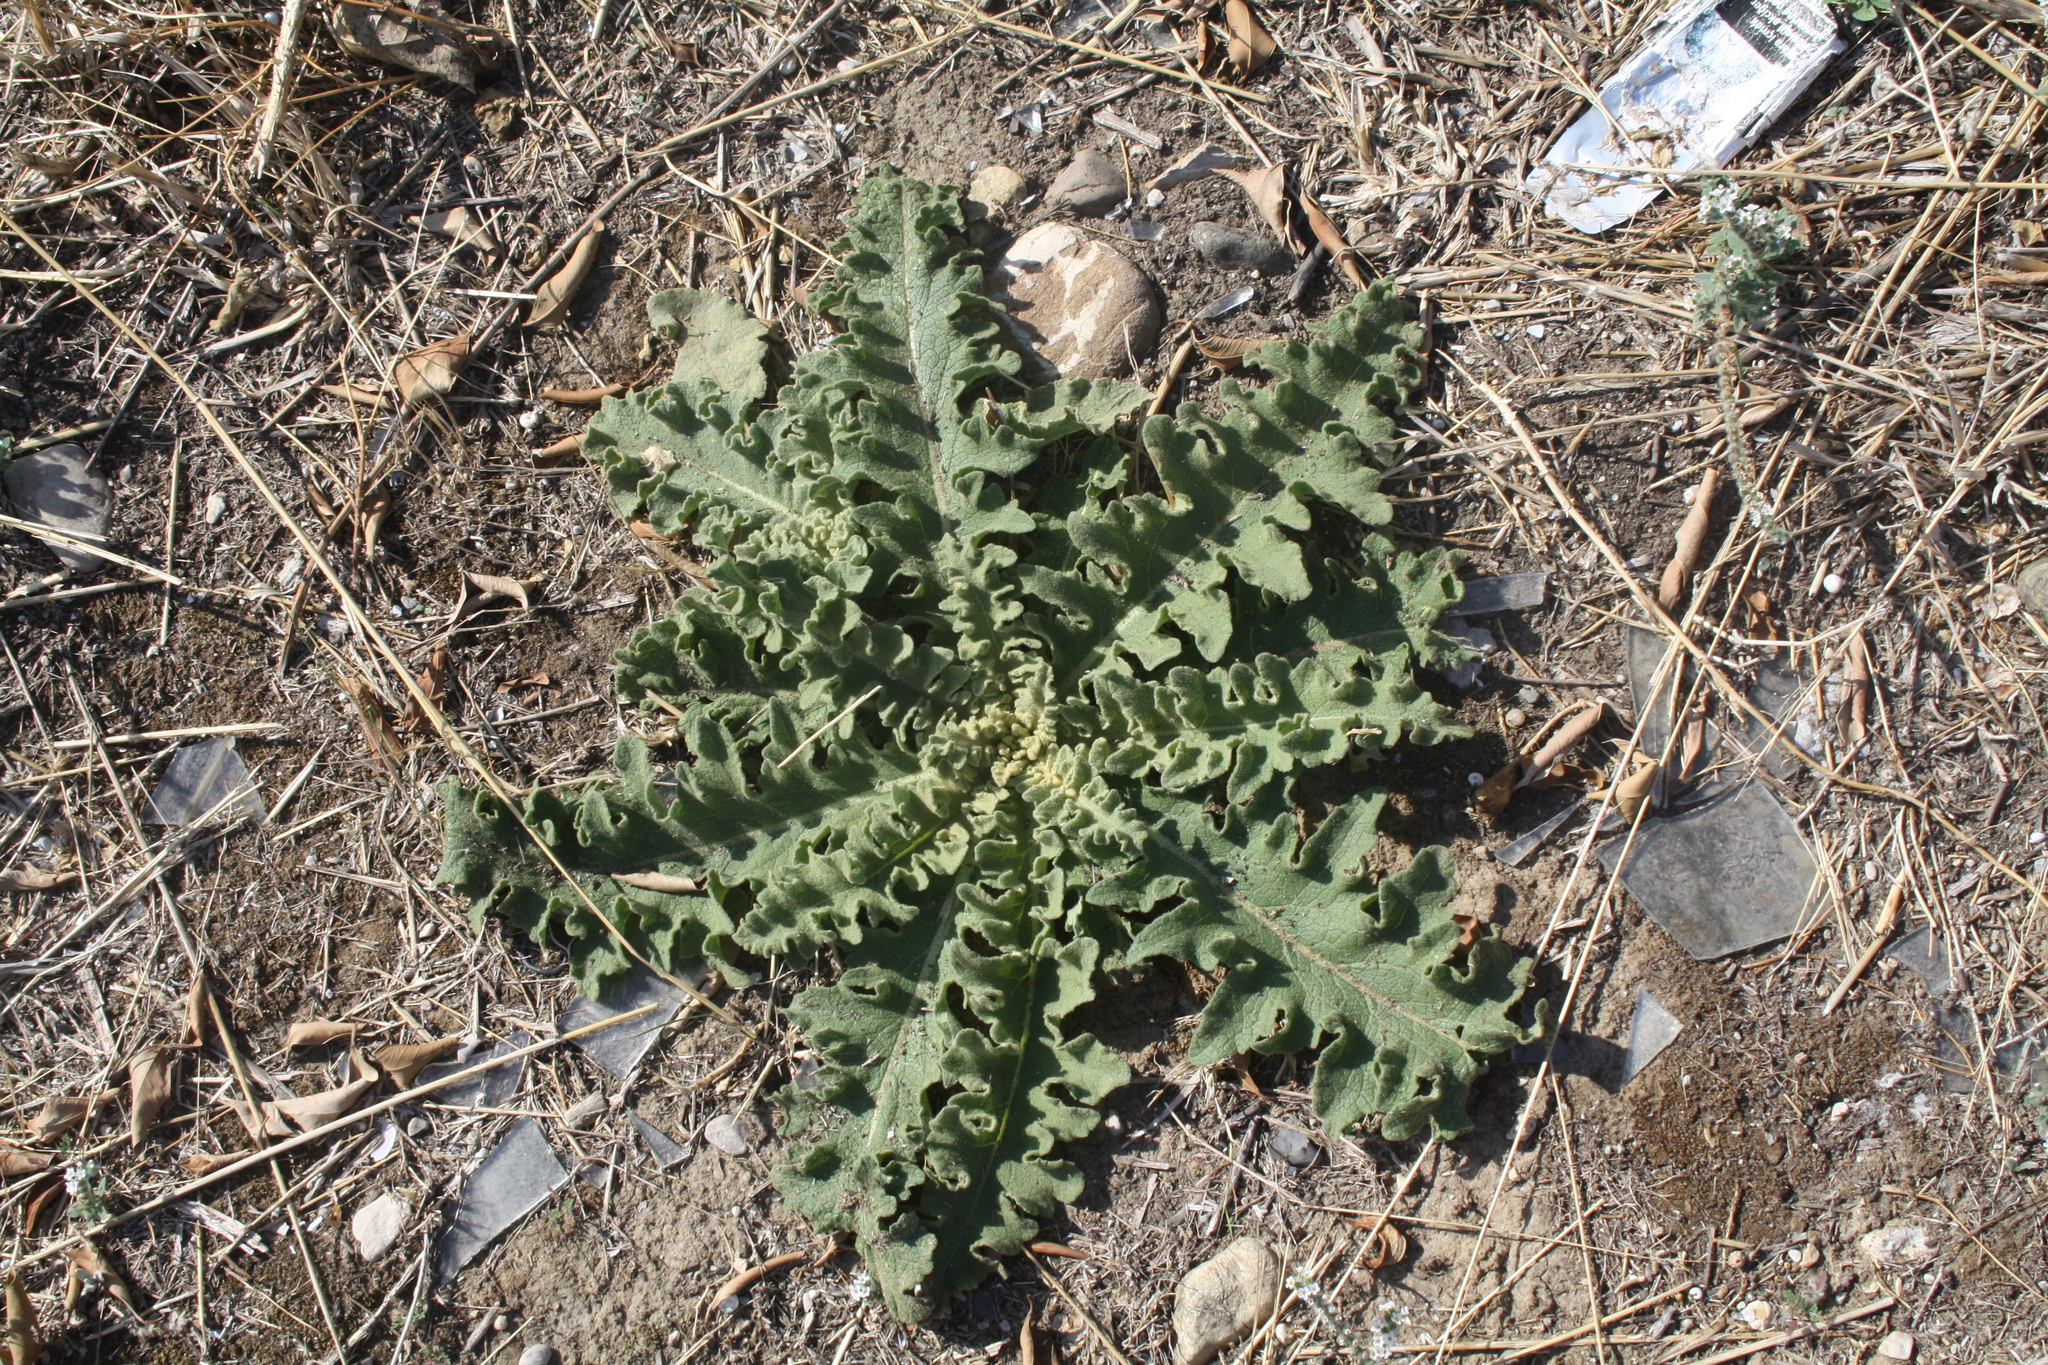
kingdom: Plantae
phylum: Tracheophyta
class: Magnoliopsida
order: Lamiales
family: Scrophulariaceae
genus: Verbascum
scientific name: Verbascum sinuatum
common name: Wavyleaf mullein
